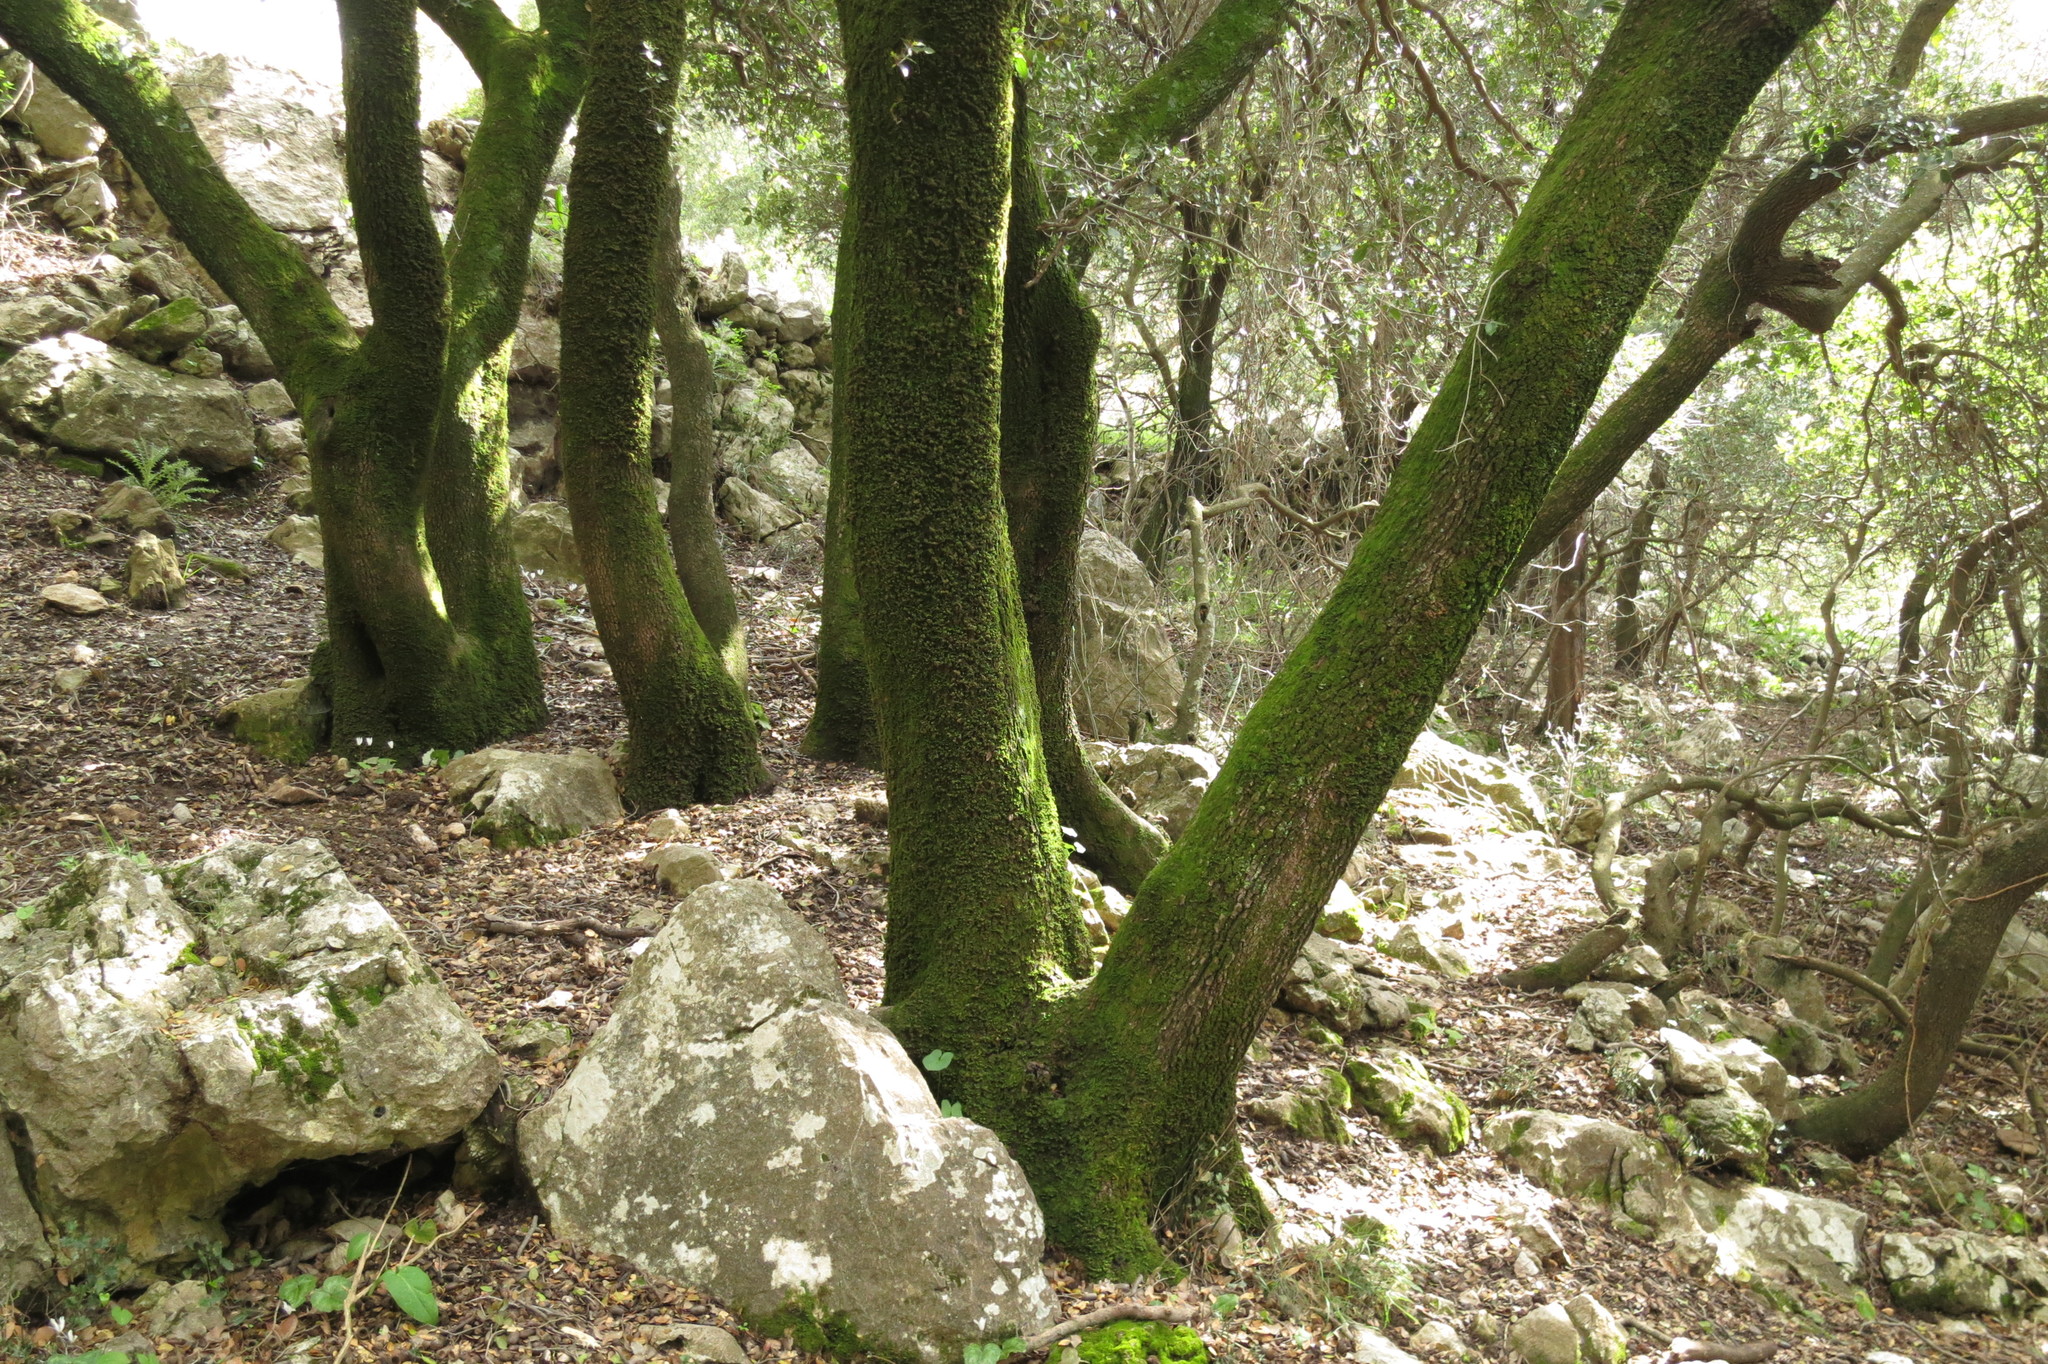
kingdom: Plantae
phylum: Tracheophyta
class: Magnoliopsida
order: Fagales
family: Fagaceae
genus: Quercus
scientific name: Quercus coccifera
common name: Kermes oak
